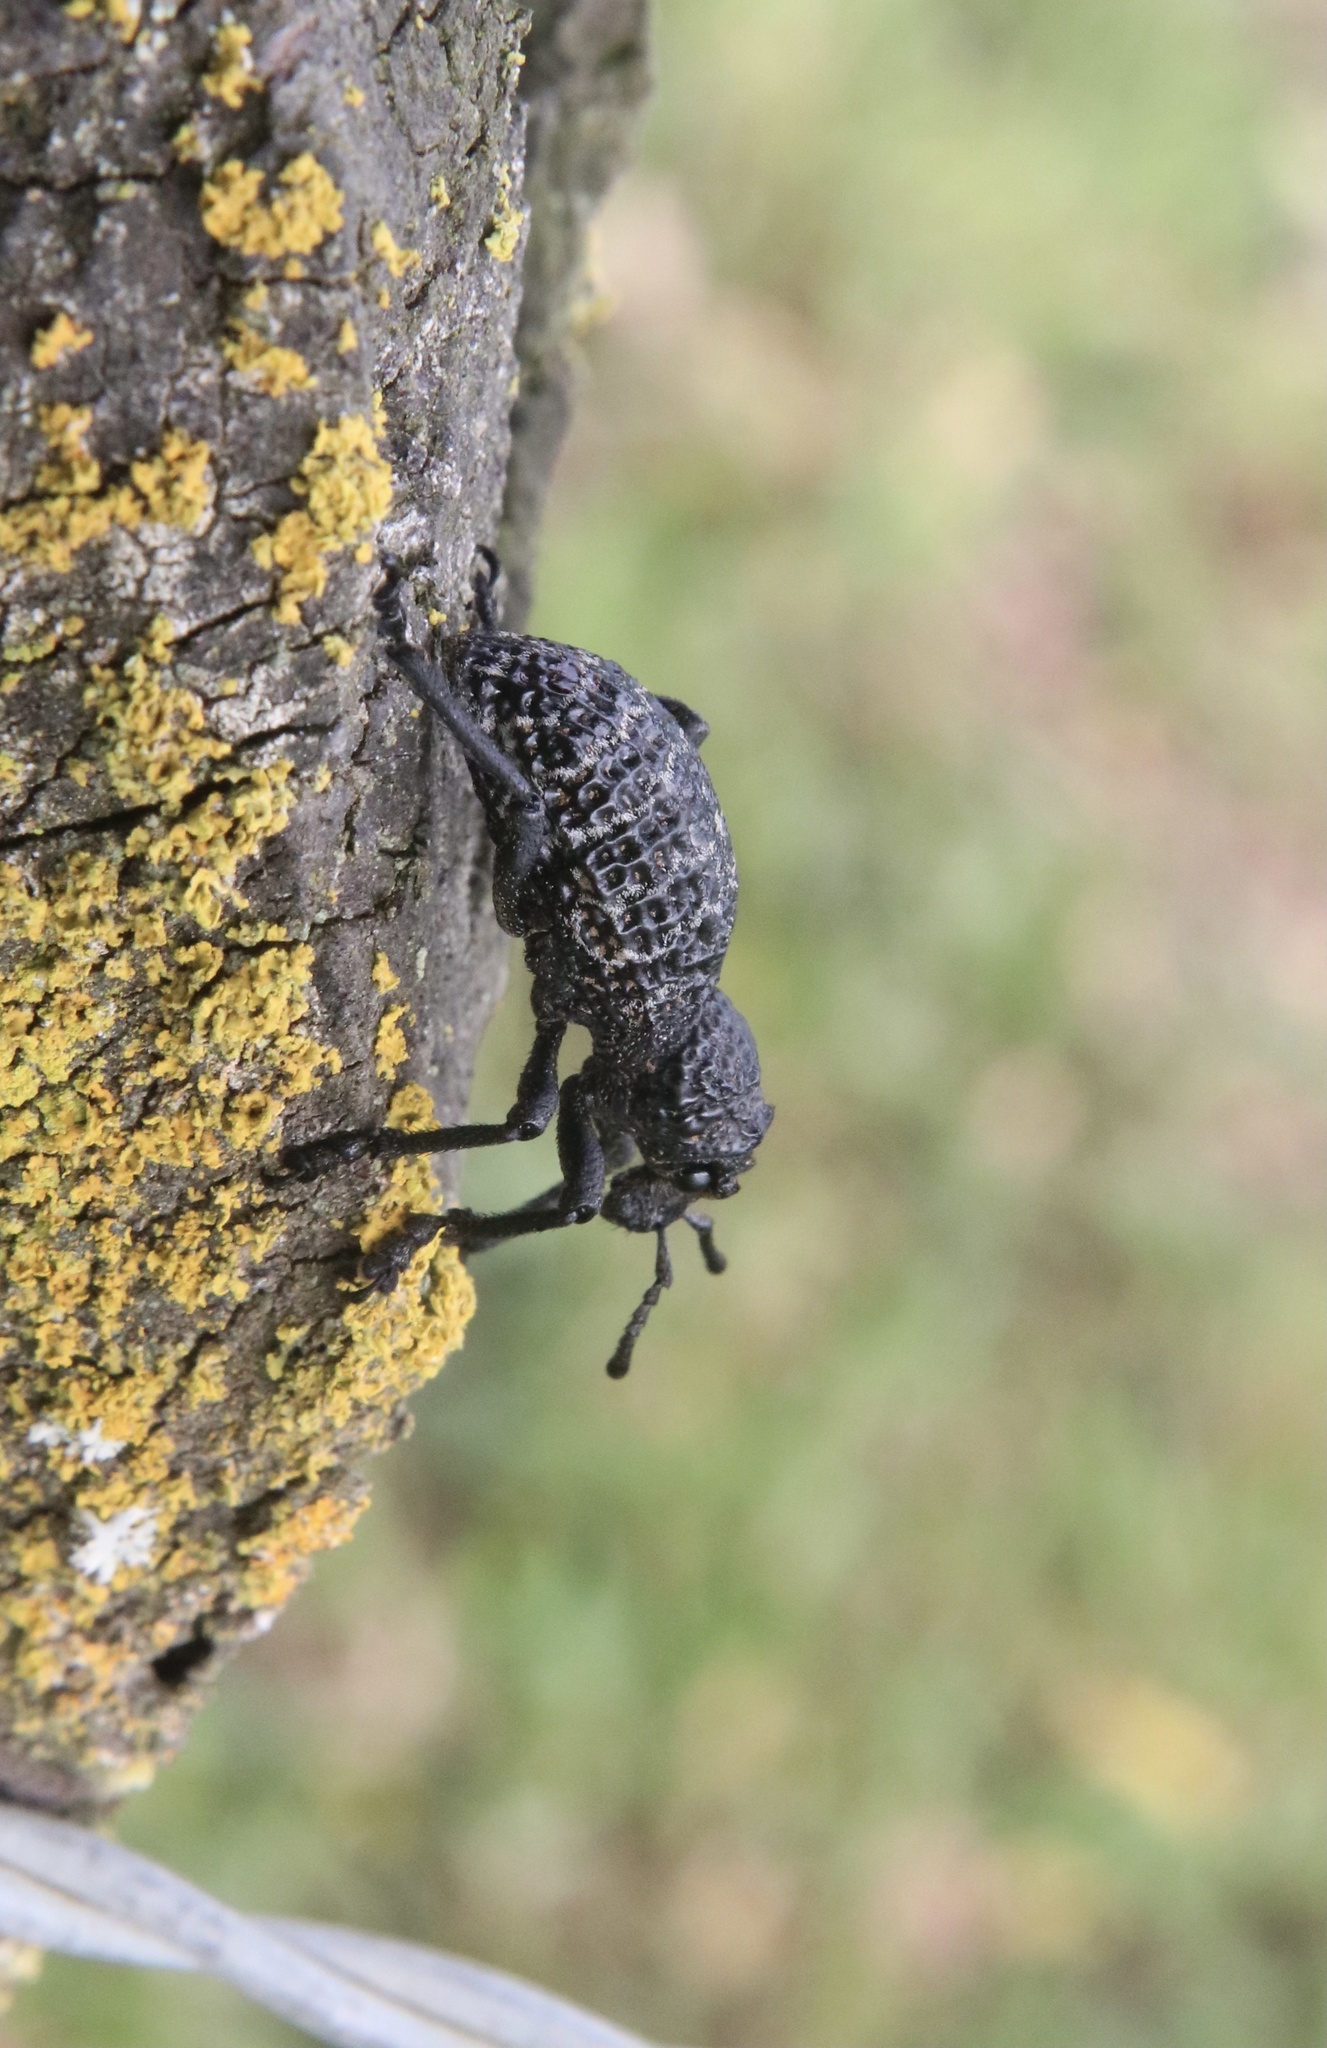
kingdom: Animalia
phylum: Arthropoda
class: Insecta
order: Coleoptera
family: Curculionidae
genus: Aegorhinus
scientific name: Aegorhinus superciliosus
